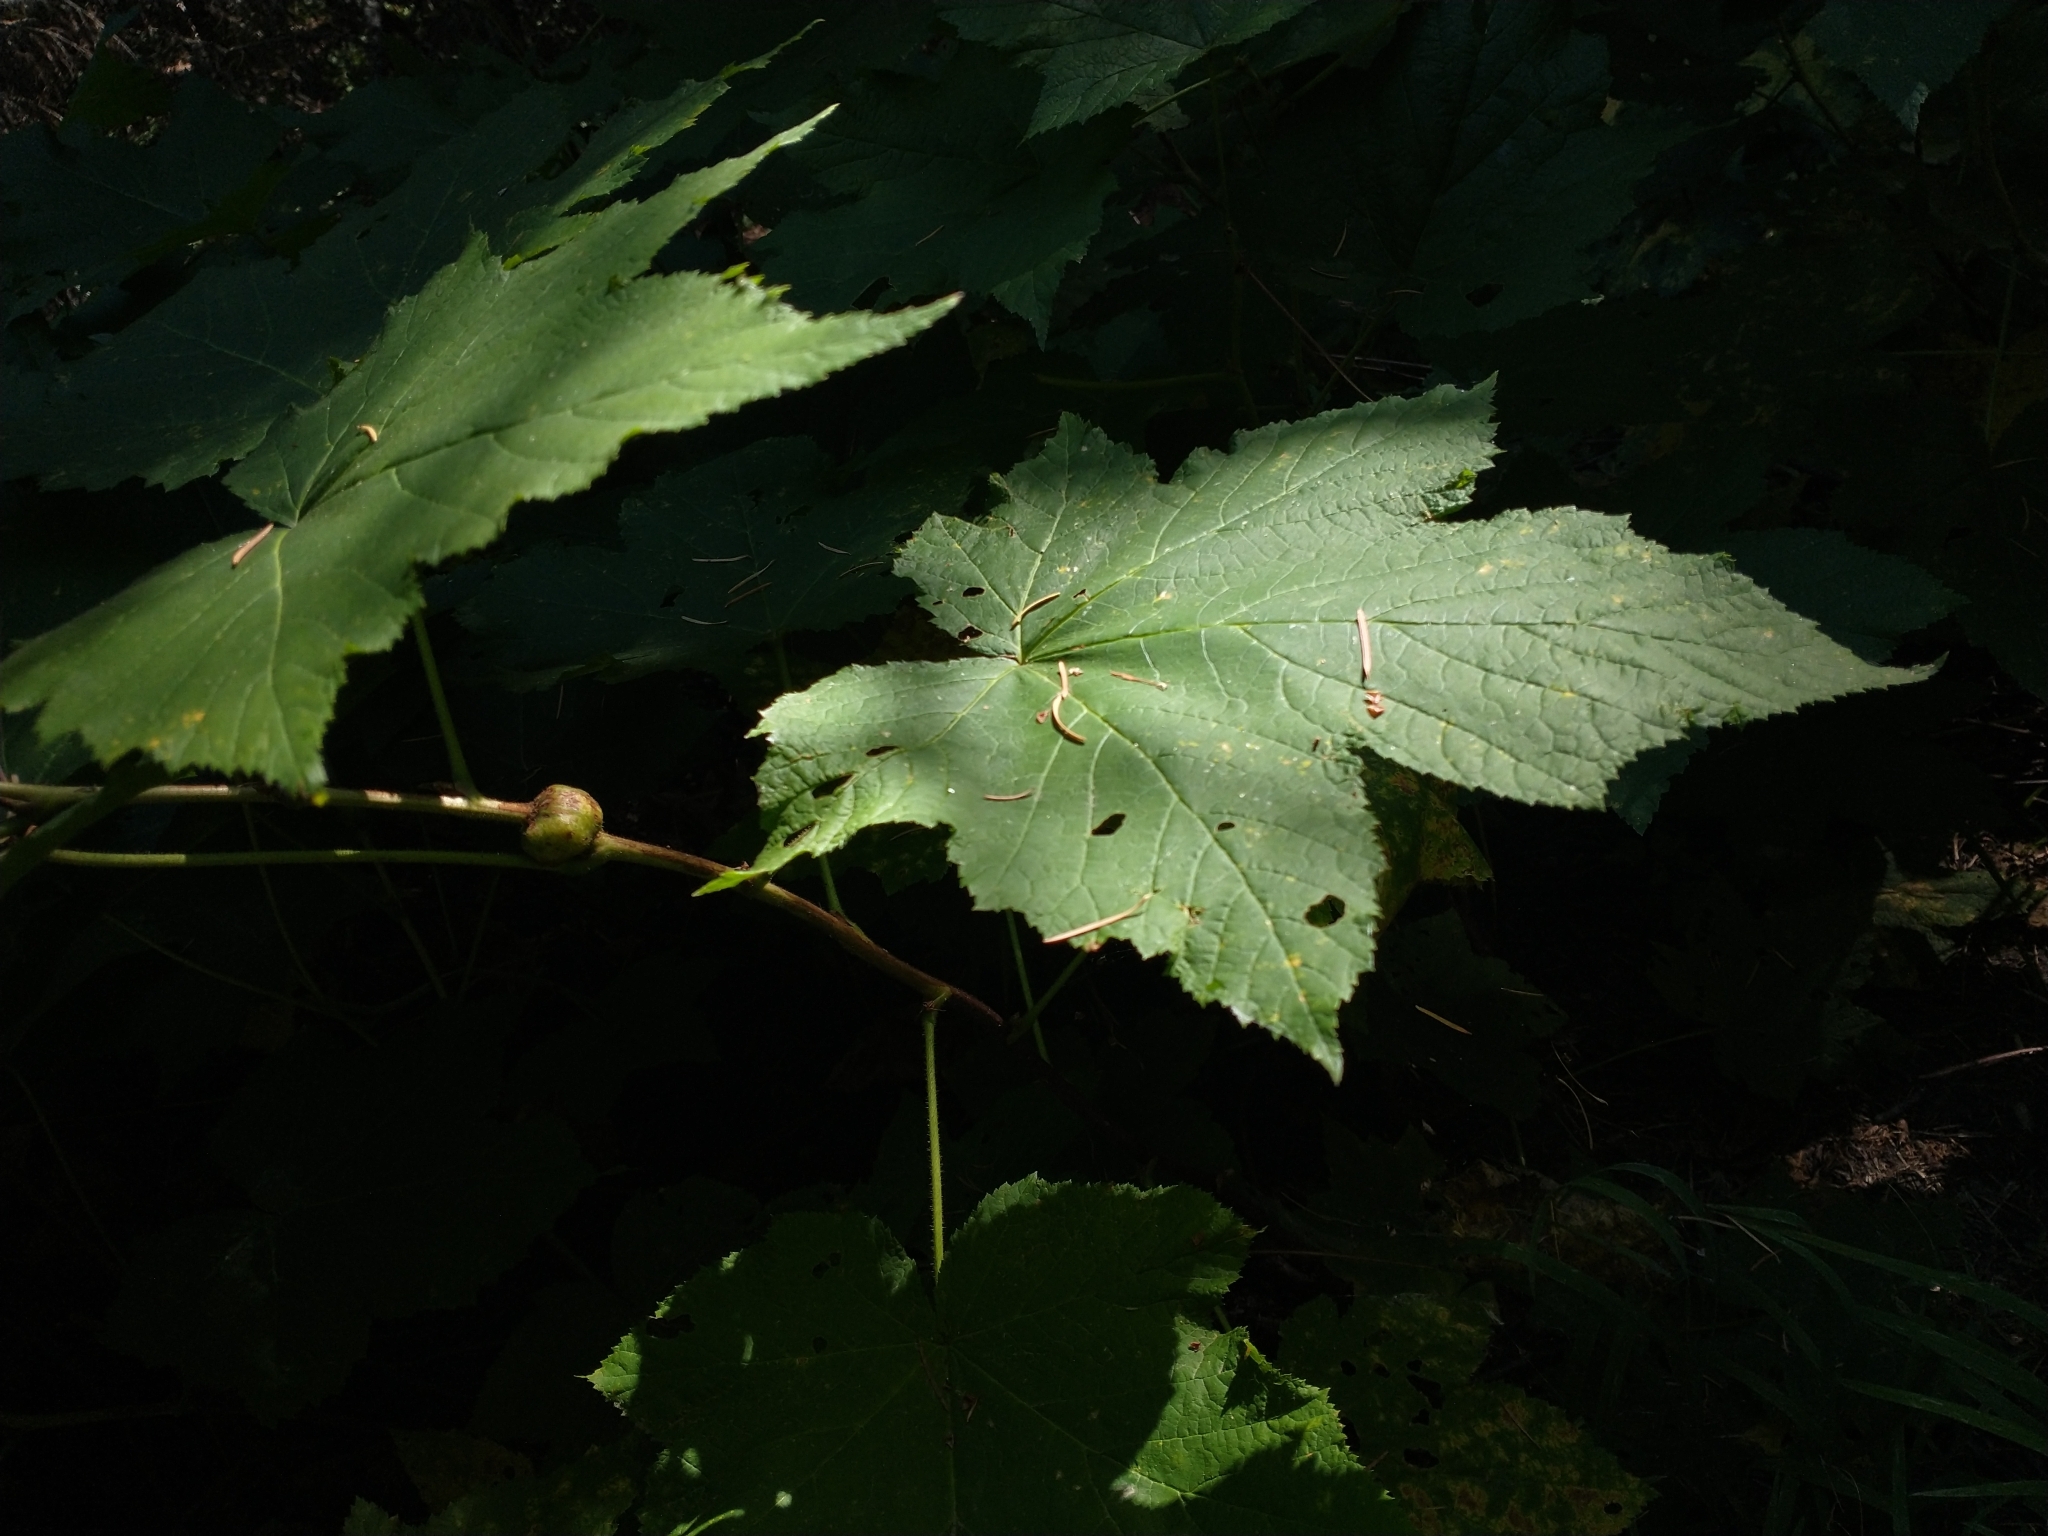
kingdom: Plantae
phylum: Tracheophyta
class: Magnoliopsida
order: Rosales
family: Rosaceae
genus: Rubus
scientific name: Rubus parviflorus
